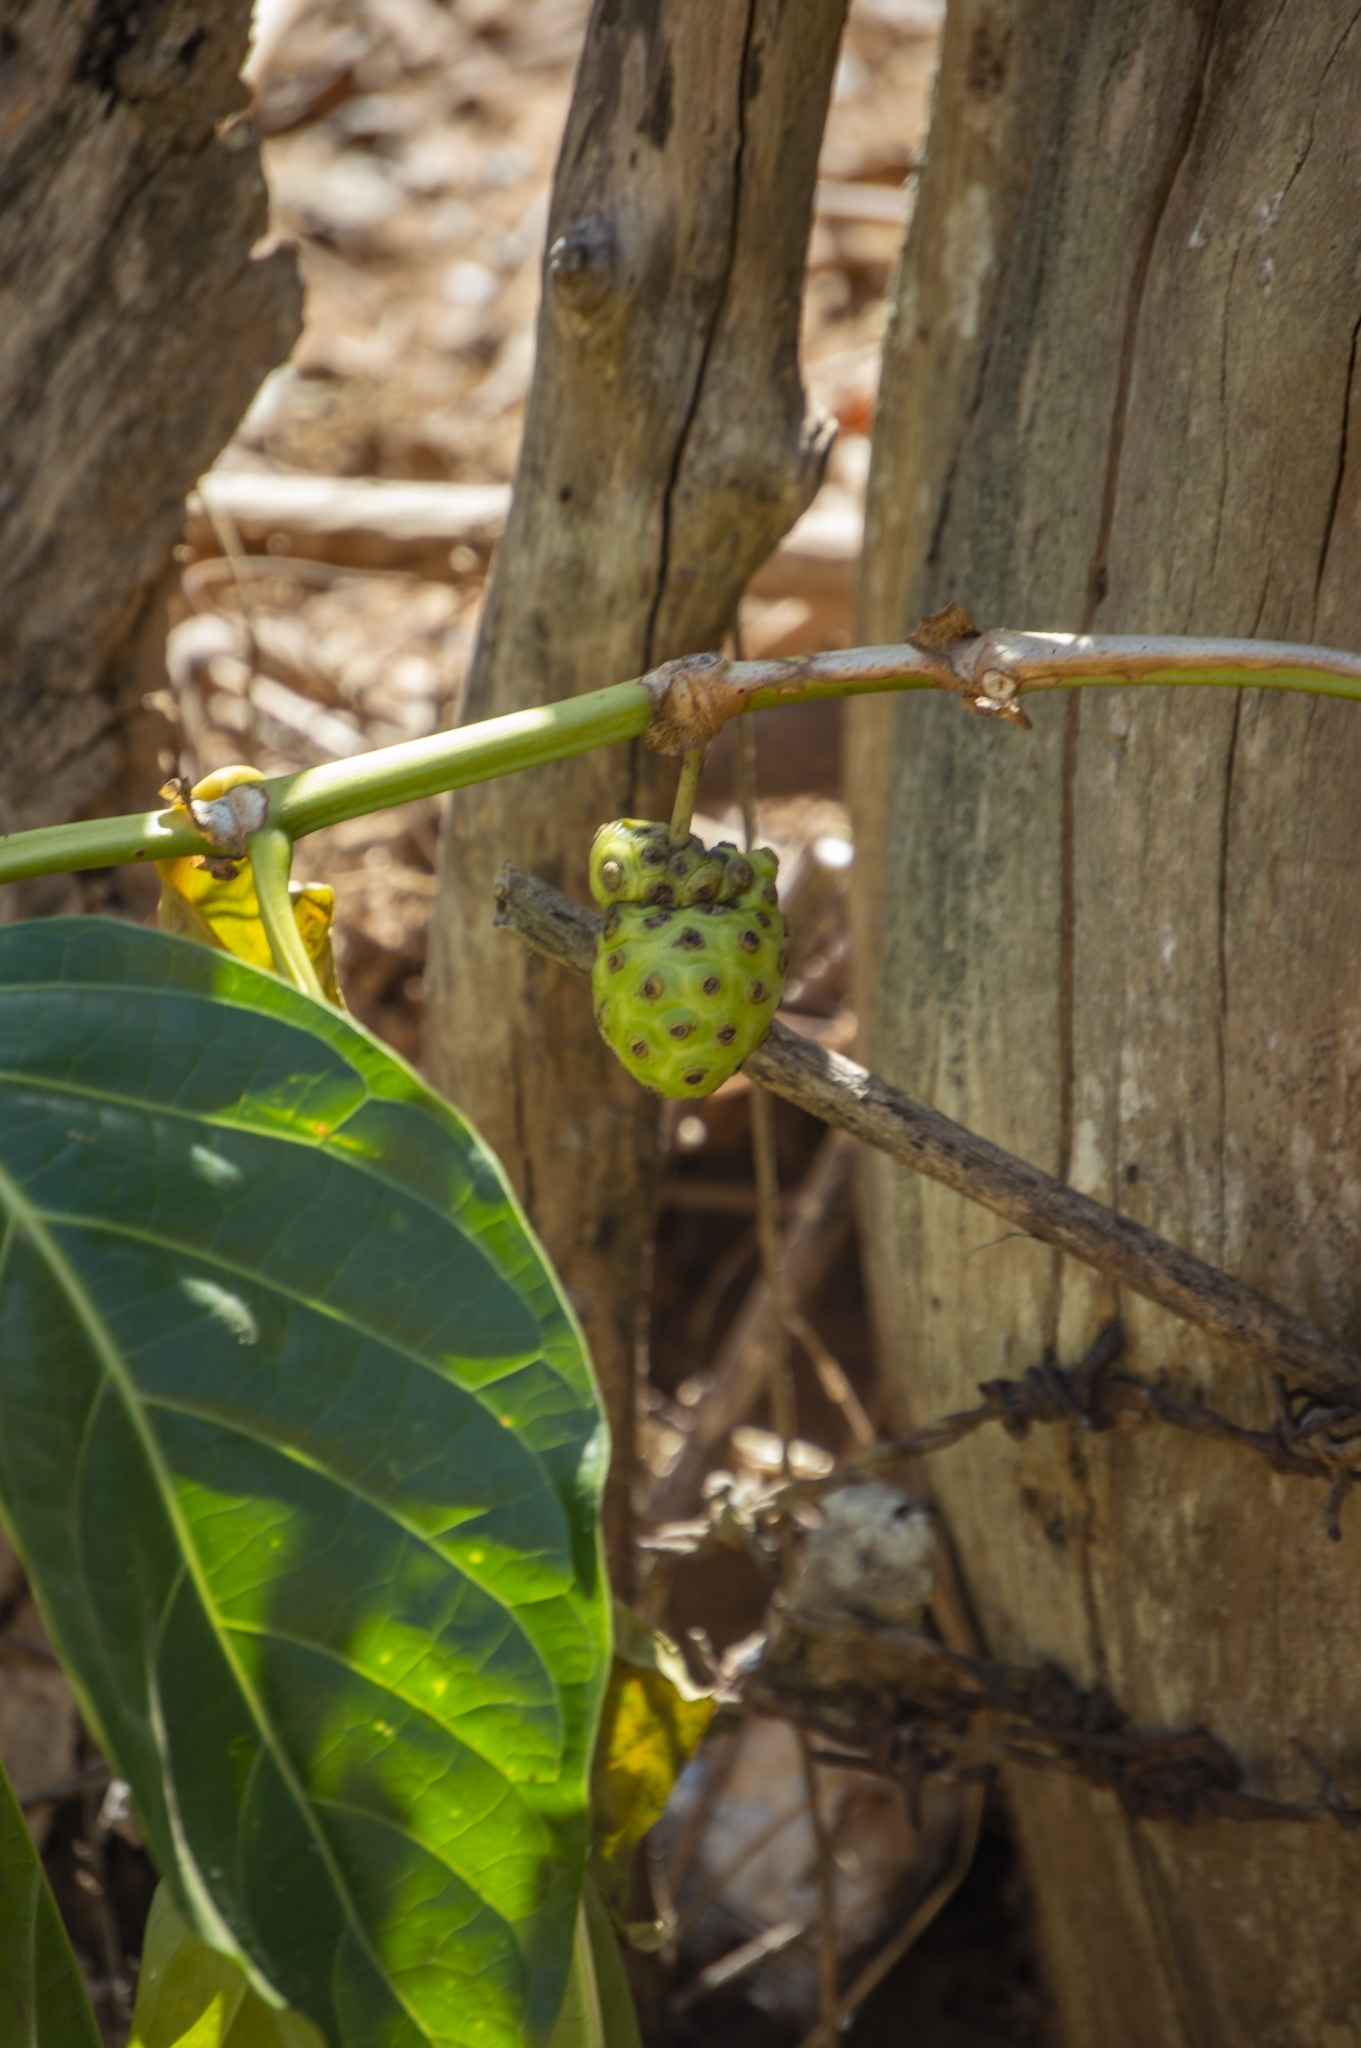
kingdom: Plantae
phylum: Tracheophyta
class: Magnoliopsida
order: Gentianales
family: Rubiaceae
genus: Morinda
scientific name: Morinda citrifolia
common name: Indian-mulberry
